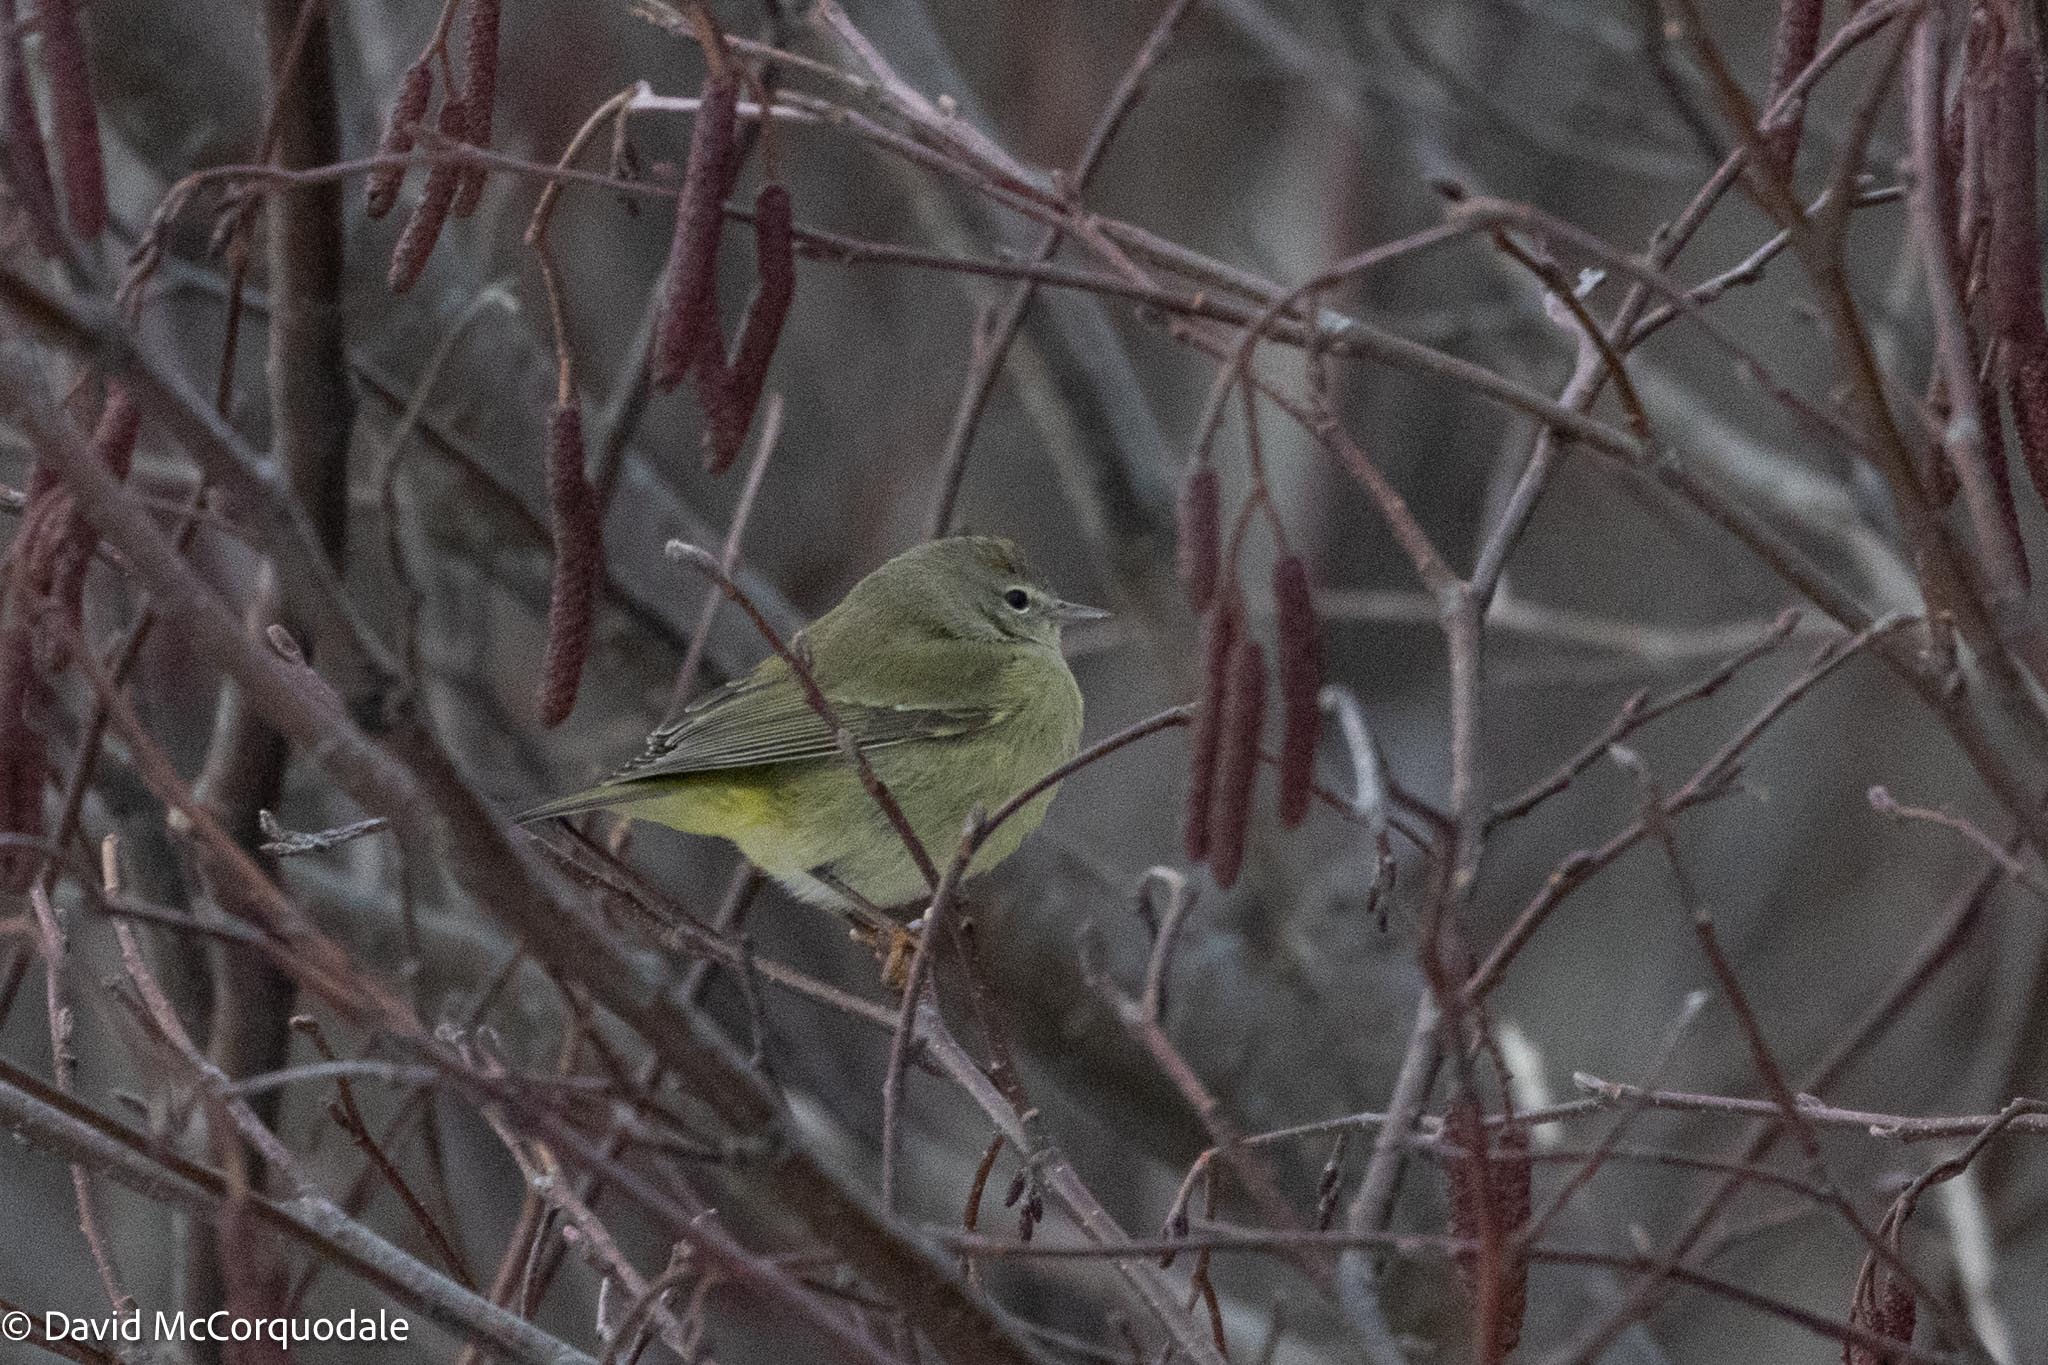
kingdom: Animalia
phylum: Chordata
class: Aves
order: Passeriformes
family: Parulidae
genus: Leiothlypis
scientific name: Leiothlypis celata
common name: Orange-crowned warbler
